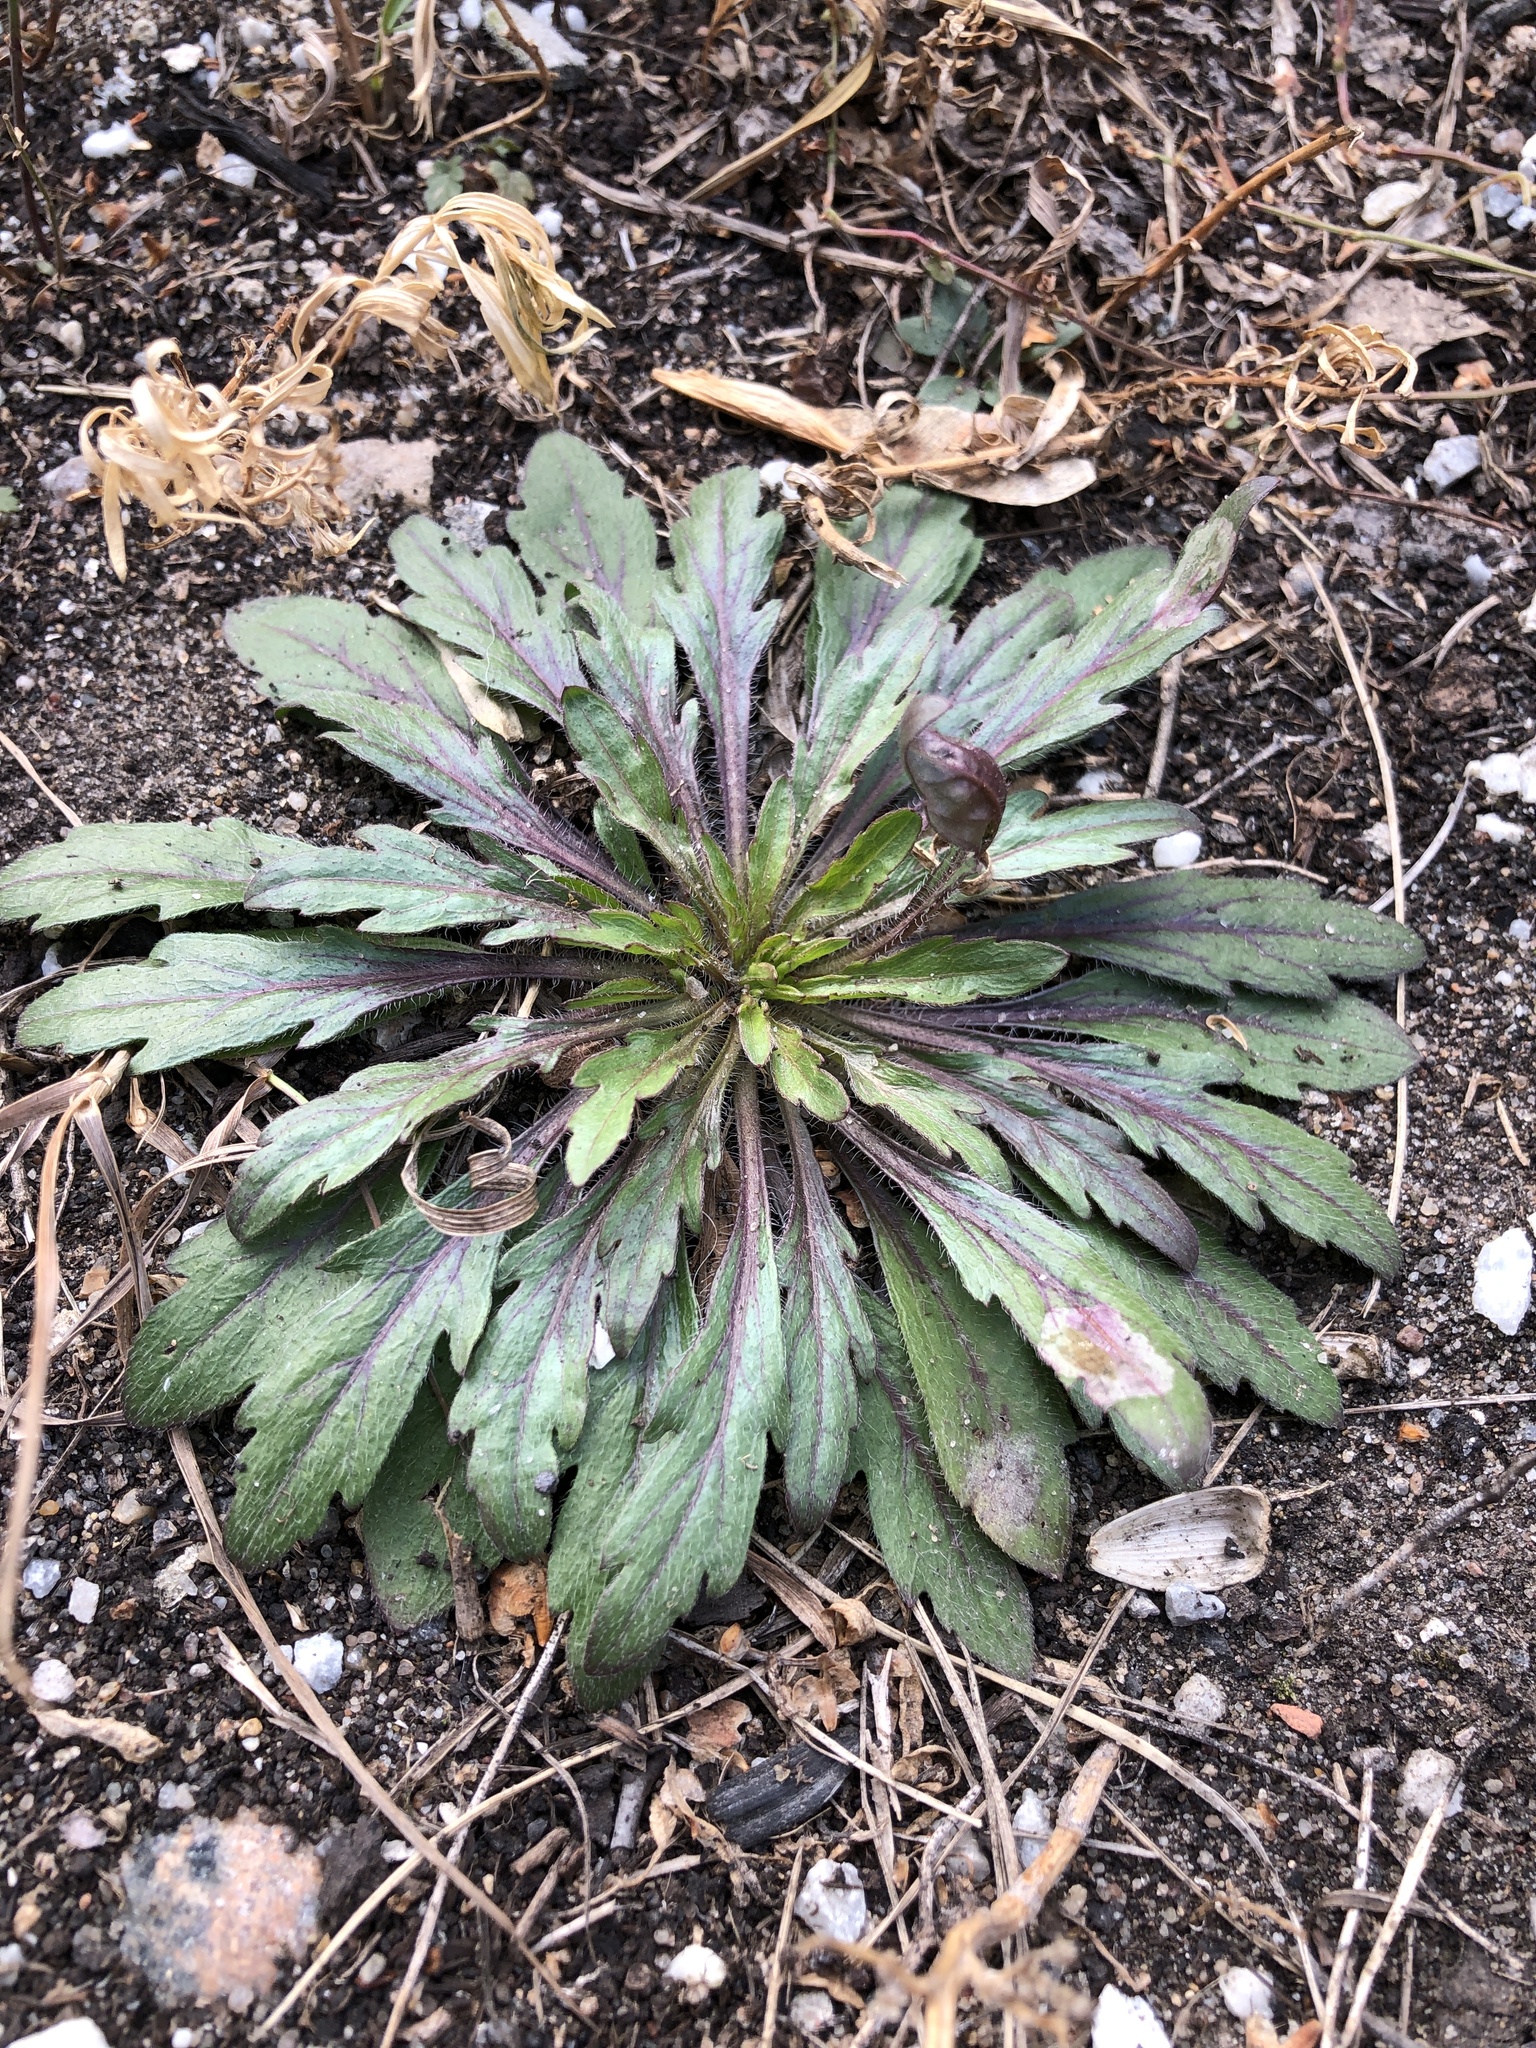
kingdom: Plantae
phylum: Tracheophyta
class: Magnoliopsida
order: Asterales
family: Asteraceae
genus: Erigeron
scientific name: Erigeron canadensis
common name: Canadian fleabane
